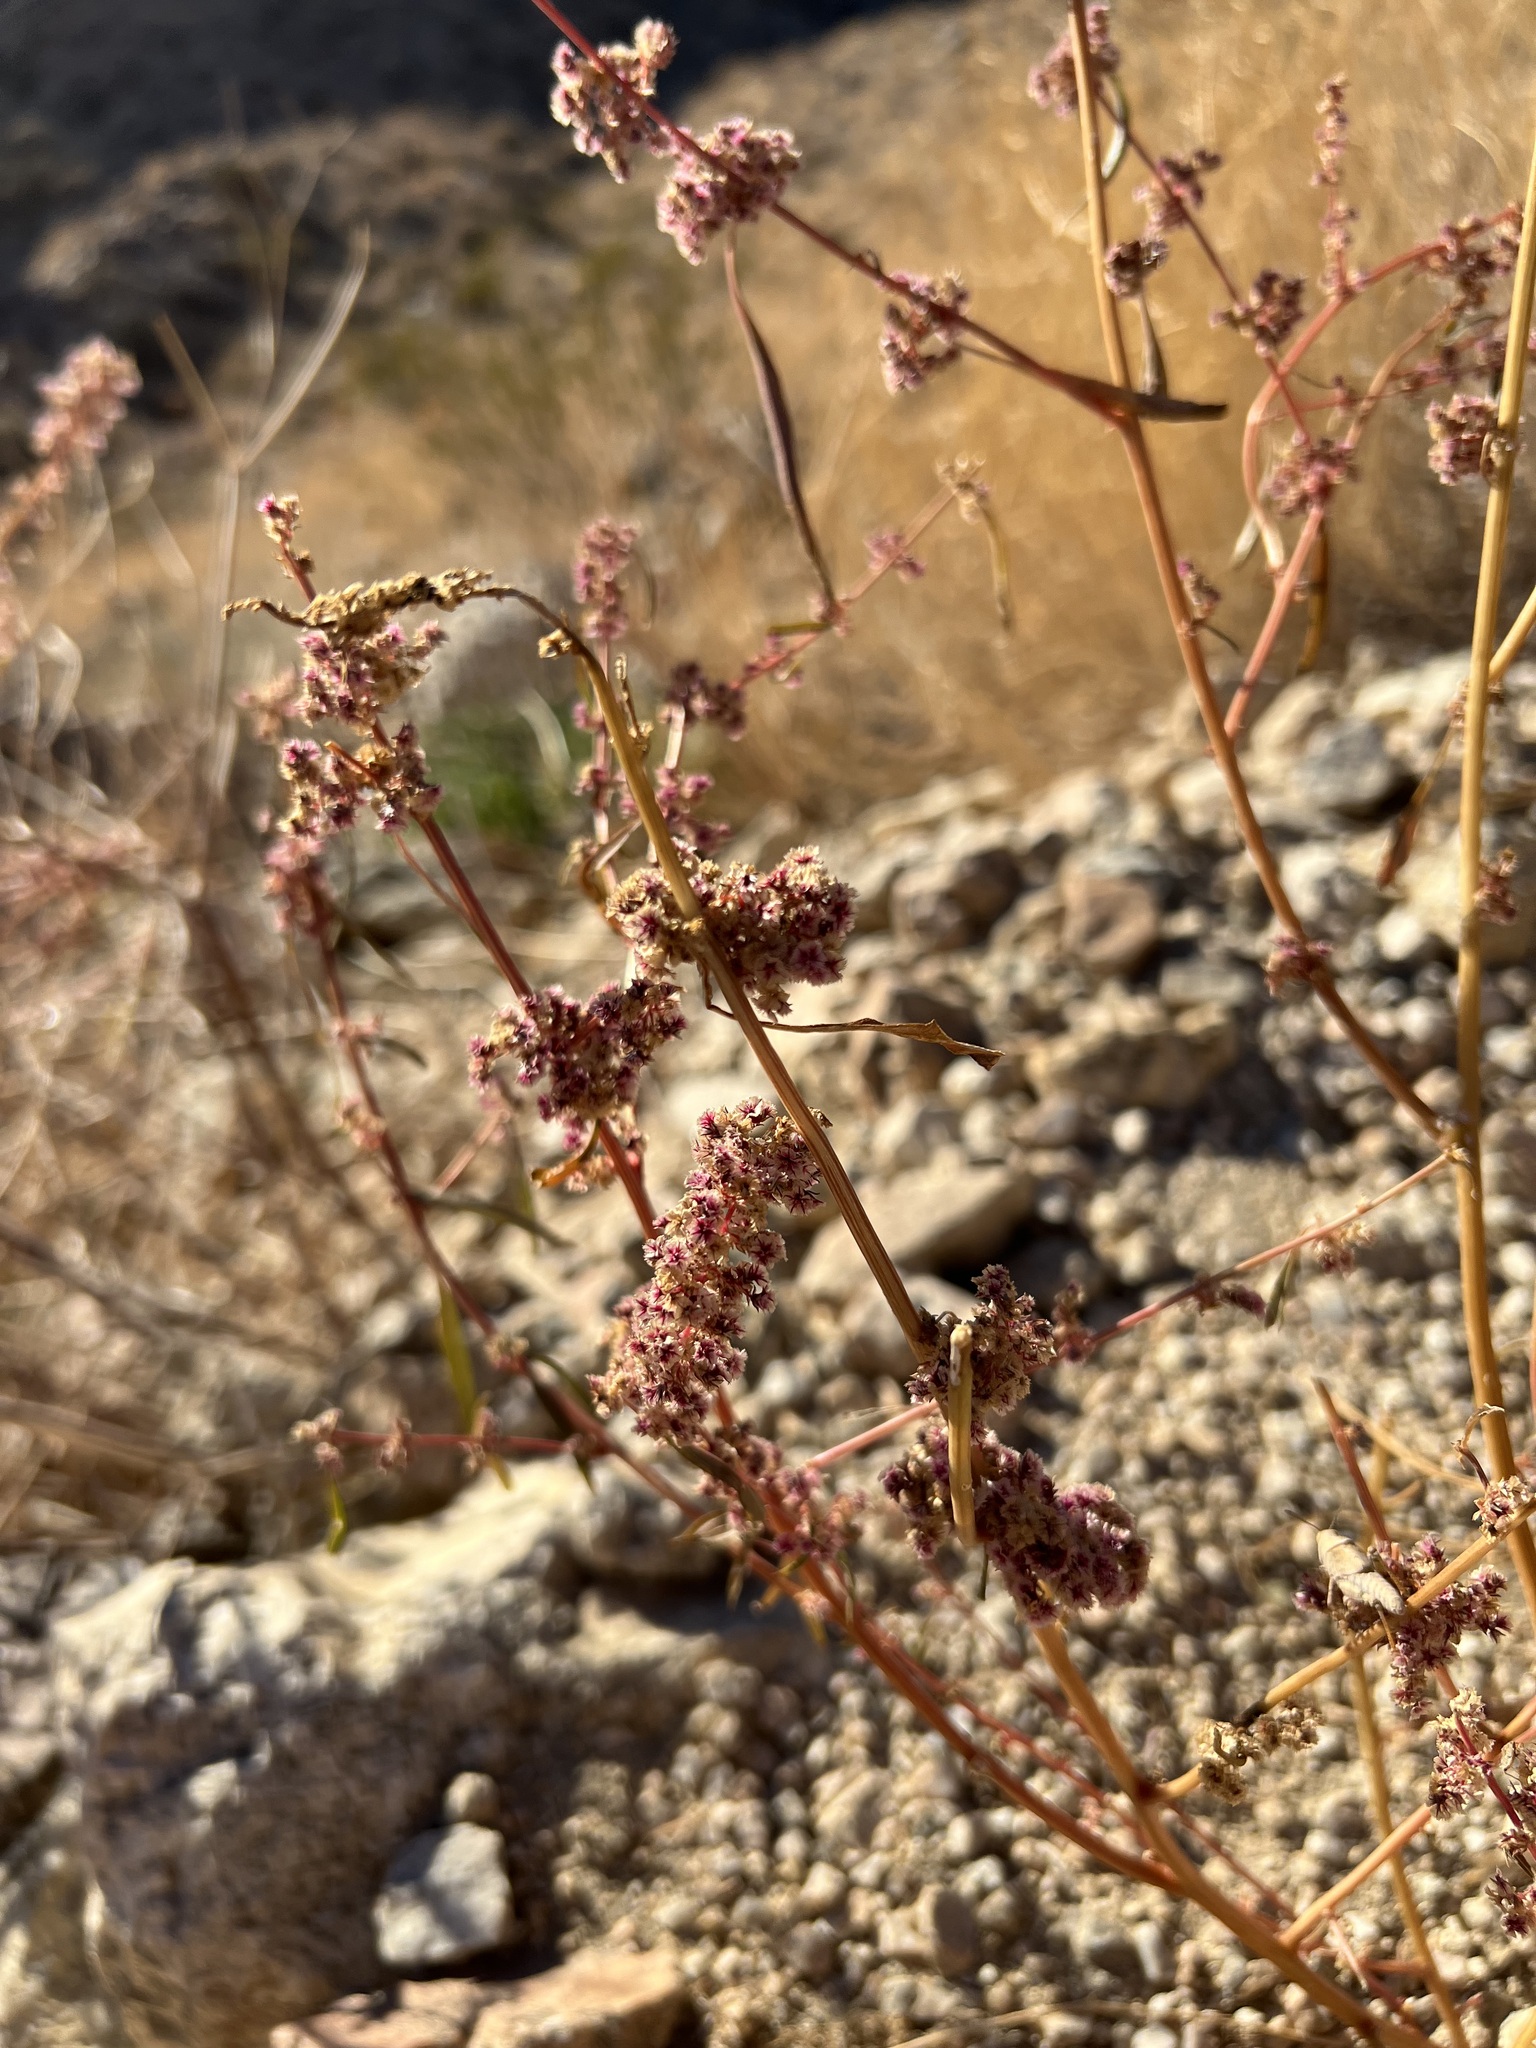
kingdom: Plantae
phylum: Tracheophyta
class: Magnoliopsida
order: Caryophyllales
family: Amaranthaceae
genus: Amaranthus
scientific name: Amaranthus fimbriatus
